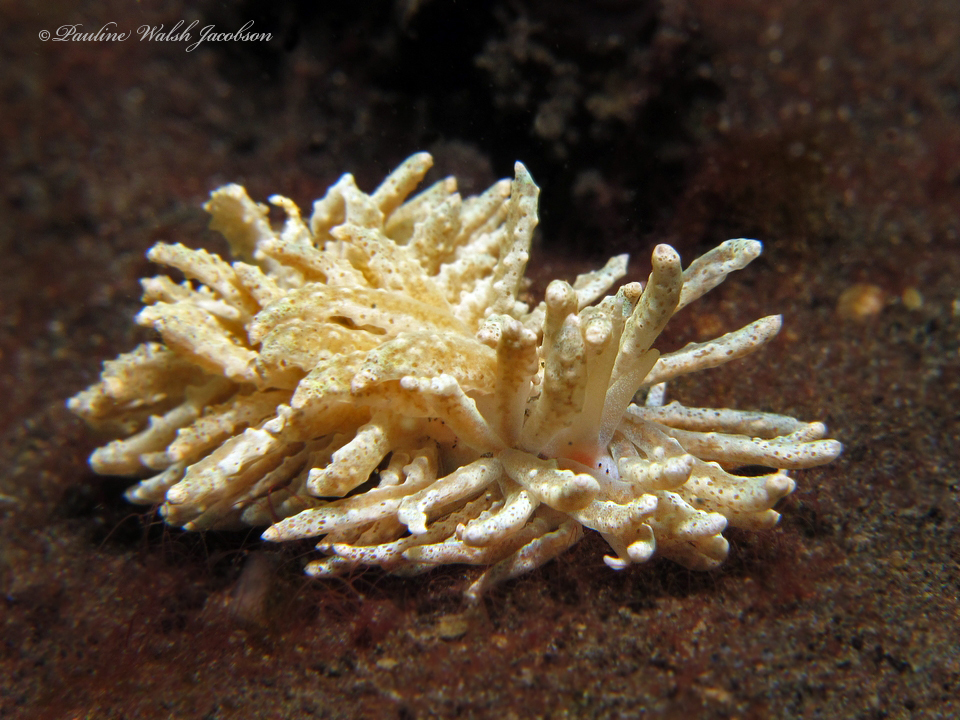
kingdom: Animalia
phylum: Mollusca
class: Gastropoda
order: Nudibranchia
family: Myrrhinidae
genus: Phyllodesmium
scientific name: Phyllodesmium crypticum
